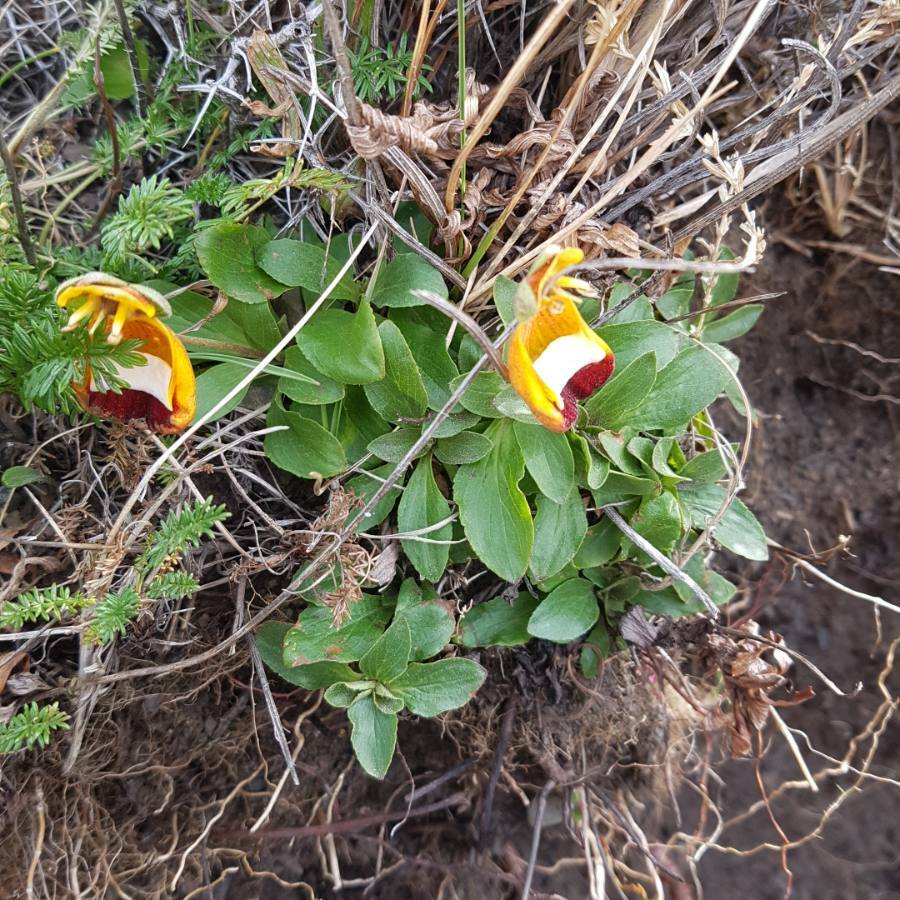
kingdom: Plantae
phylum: Tracheophyta
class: Magnoliopsida
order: Lamiales
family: Calceolariaceae
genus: Calceolaria
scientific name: Calceolaria uniflora
